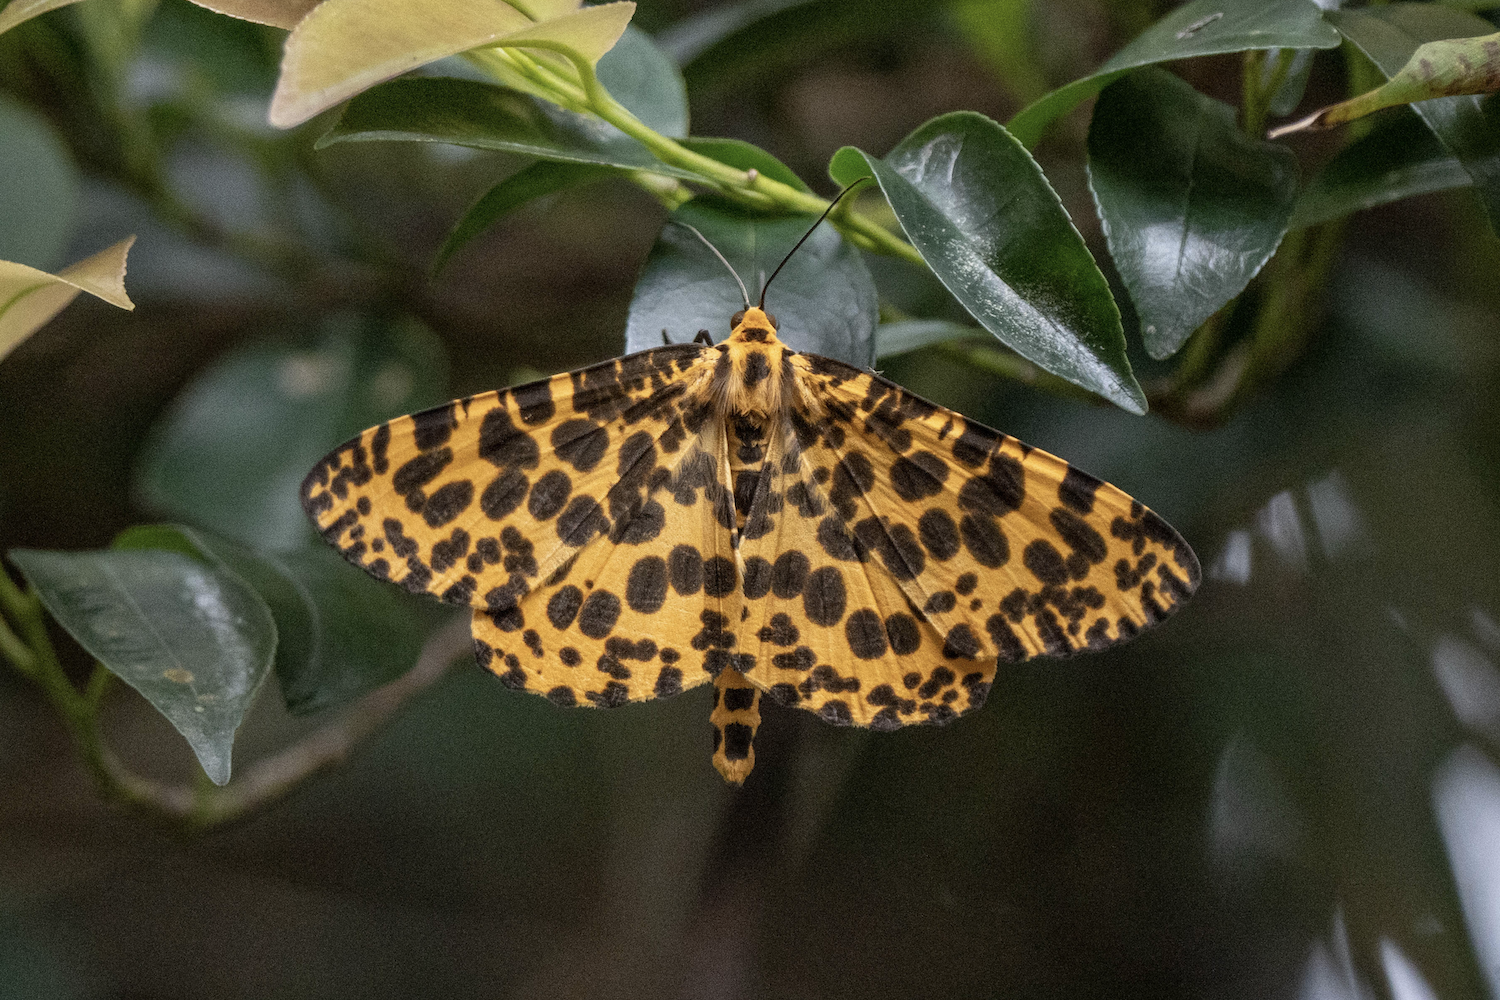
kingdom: Animalia
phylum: Arthropoda
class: Insecta
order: Lepidoptera
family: Geometridae
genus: Obeidia
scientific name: Obeidia Epobeidia tigrata
